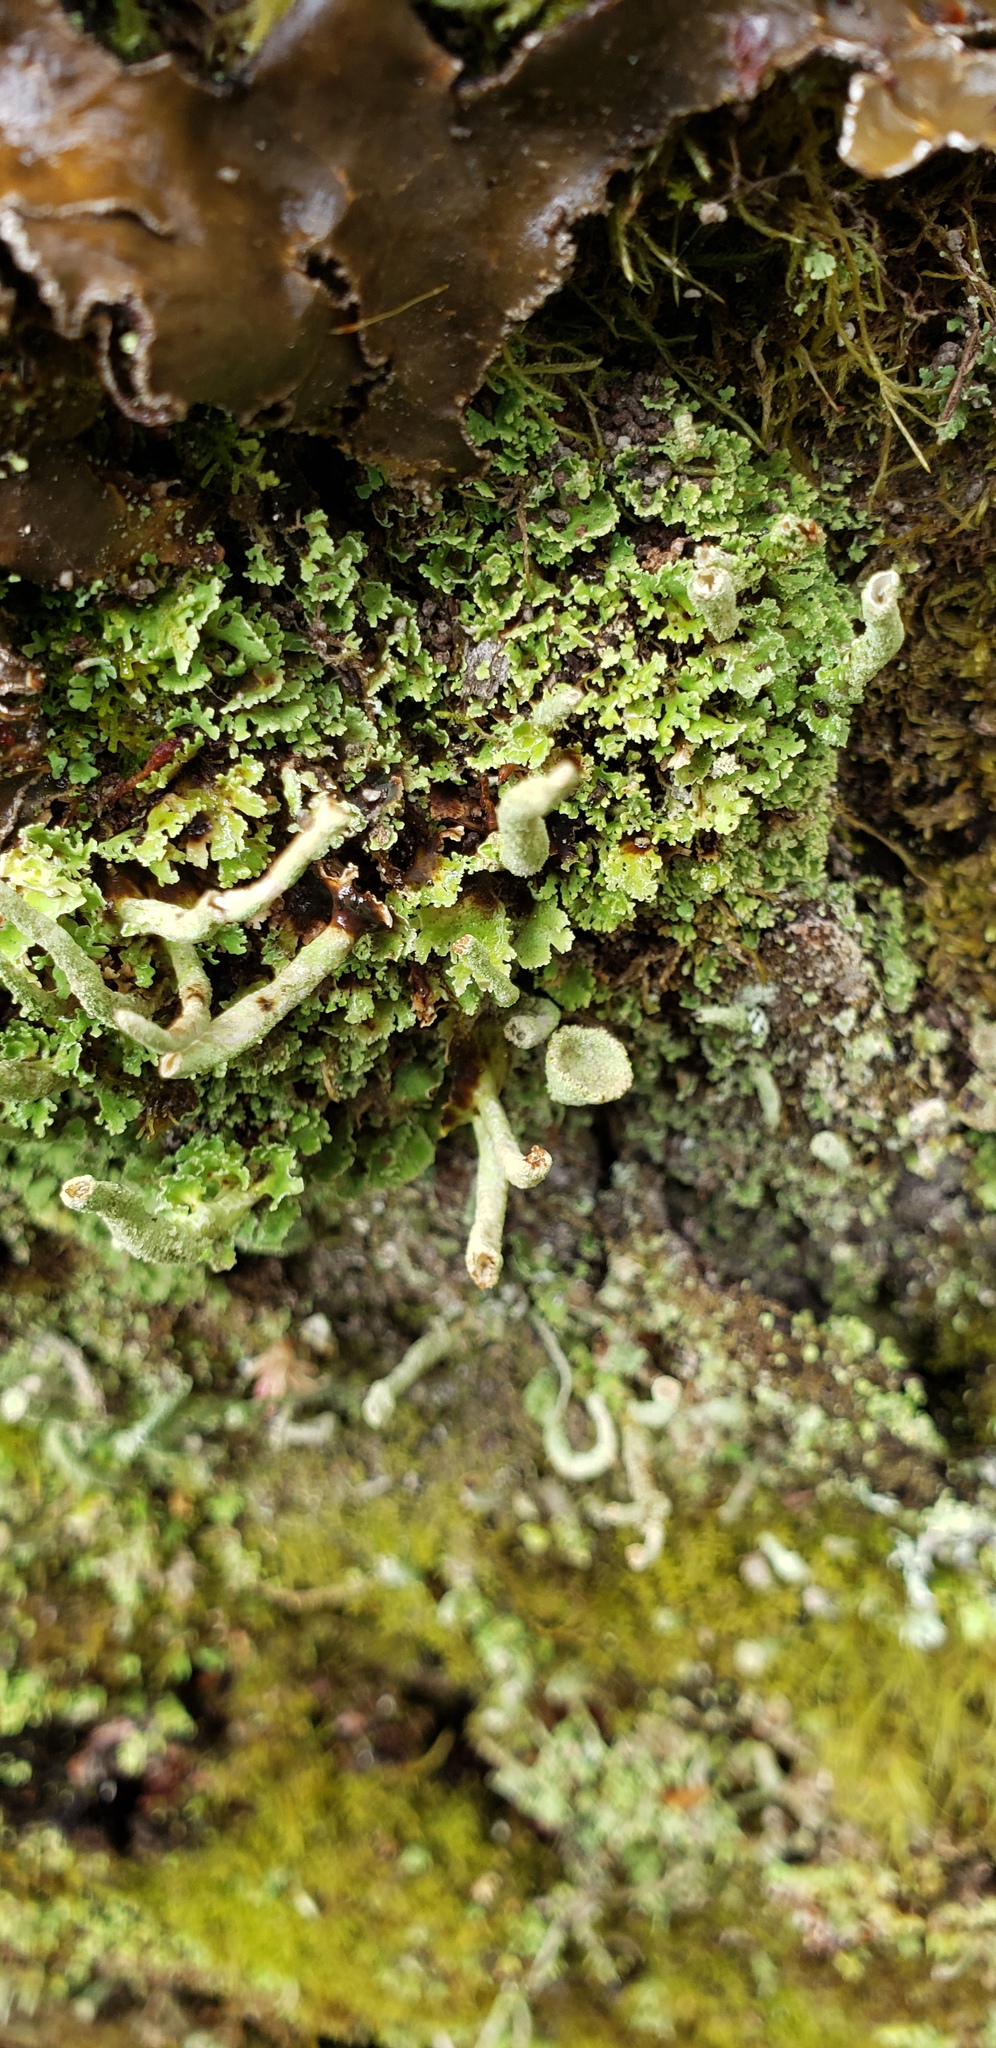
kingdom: Fungi
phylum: Ascomycota
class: Lecanoromycetes
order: Lecanorales
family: Cladoniaceae
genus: Cladonia
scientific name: Cladonia fimbriata
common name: Powdered trumpet lichen
